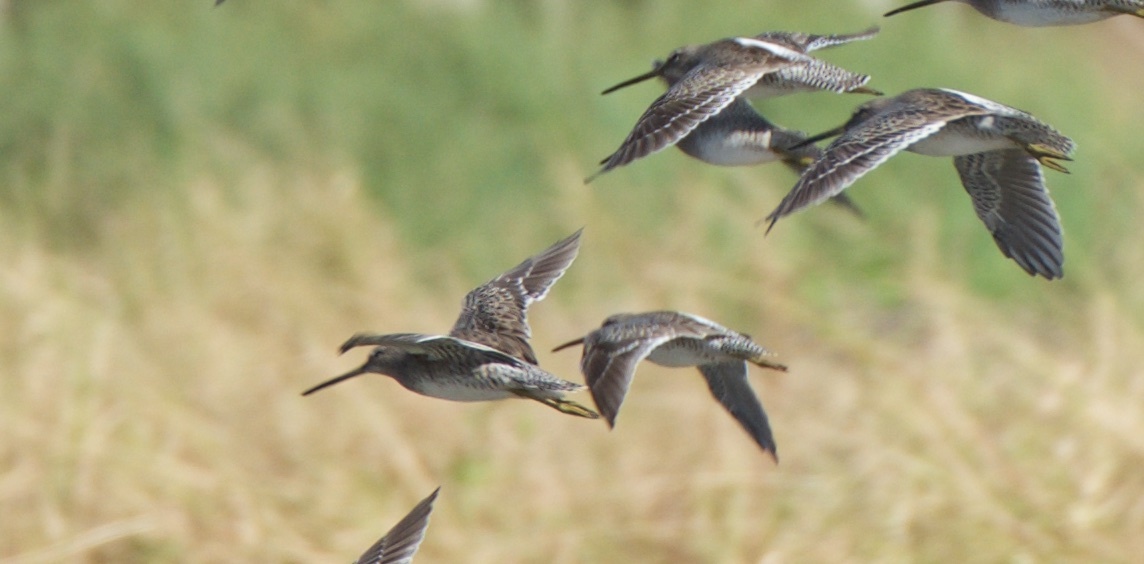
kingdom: Animalia
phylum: Chordata
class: Aves
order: Charadriiformes
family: Scolopacidae
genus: Limnodromus
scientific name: Limnodromus scolopaceus
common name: Long-billed dowitcher
